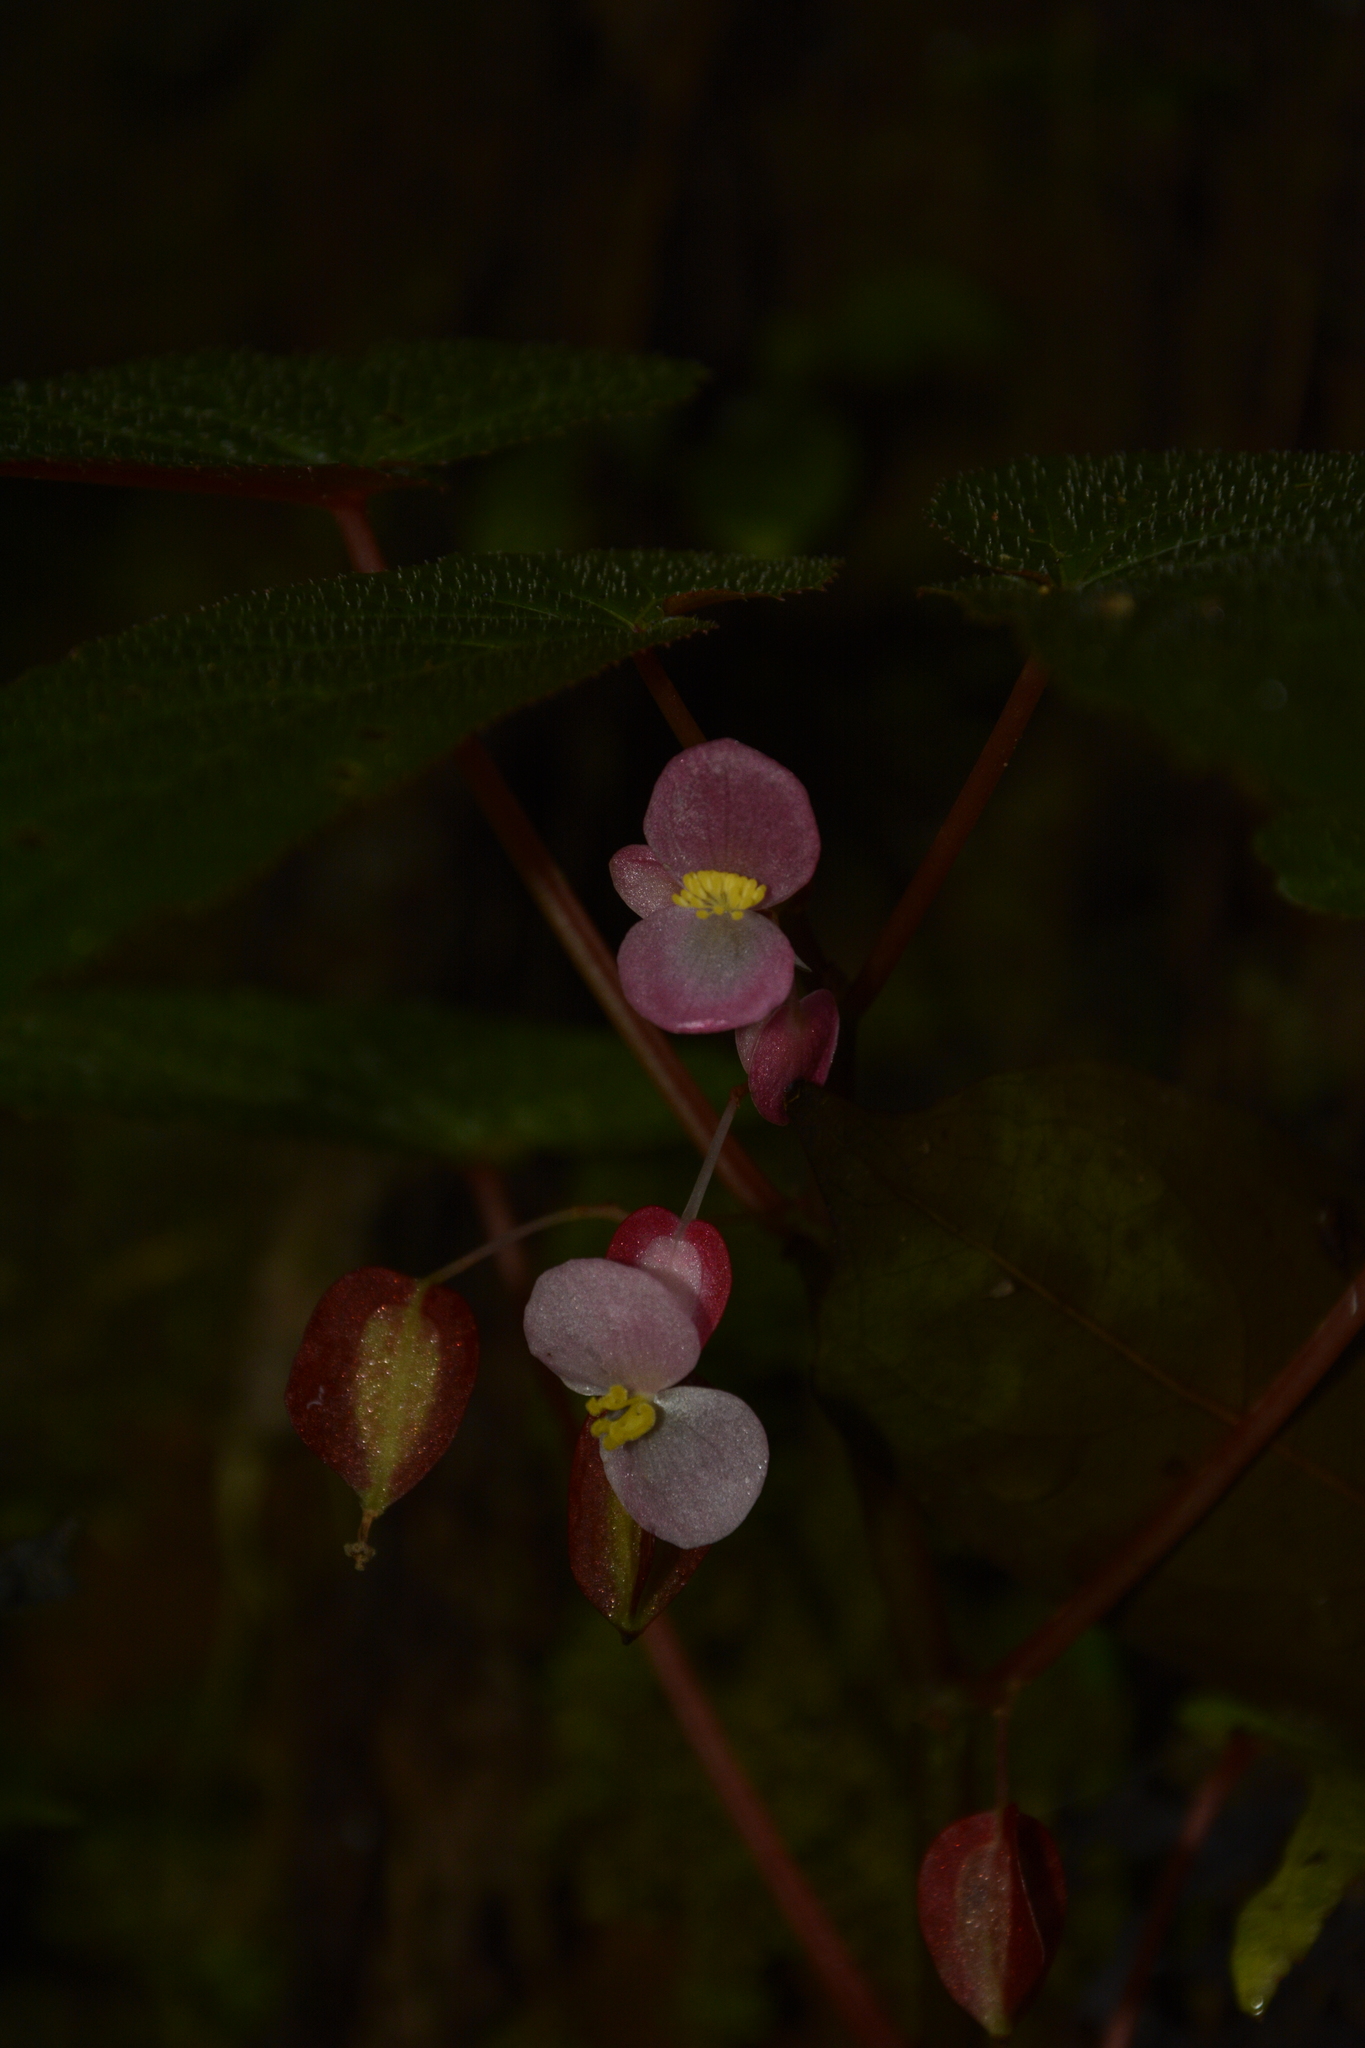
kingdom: Plantae
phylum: Tracheophyta
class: Magnoliopsida
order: Cucurbitales
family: Begoniaceae
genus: Begonia
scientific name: Begonia dipetala
